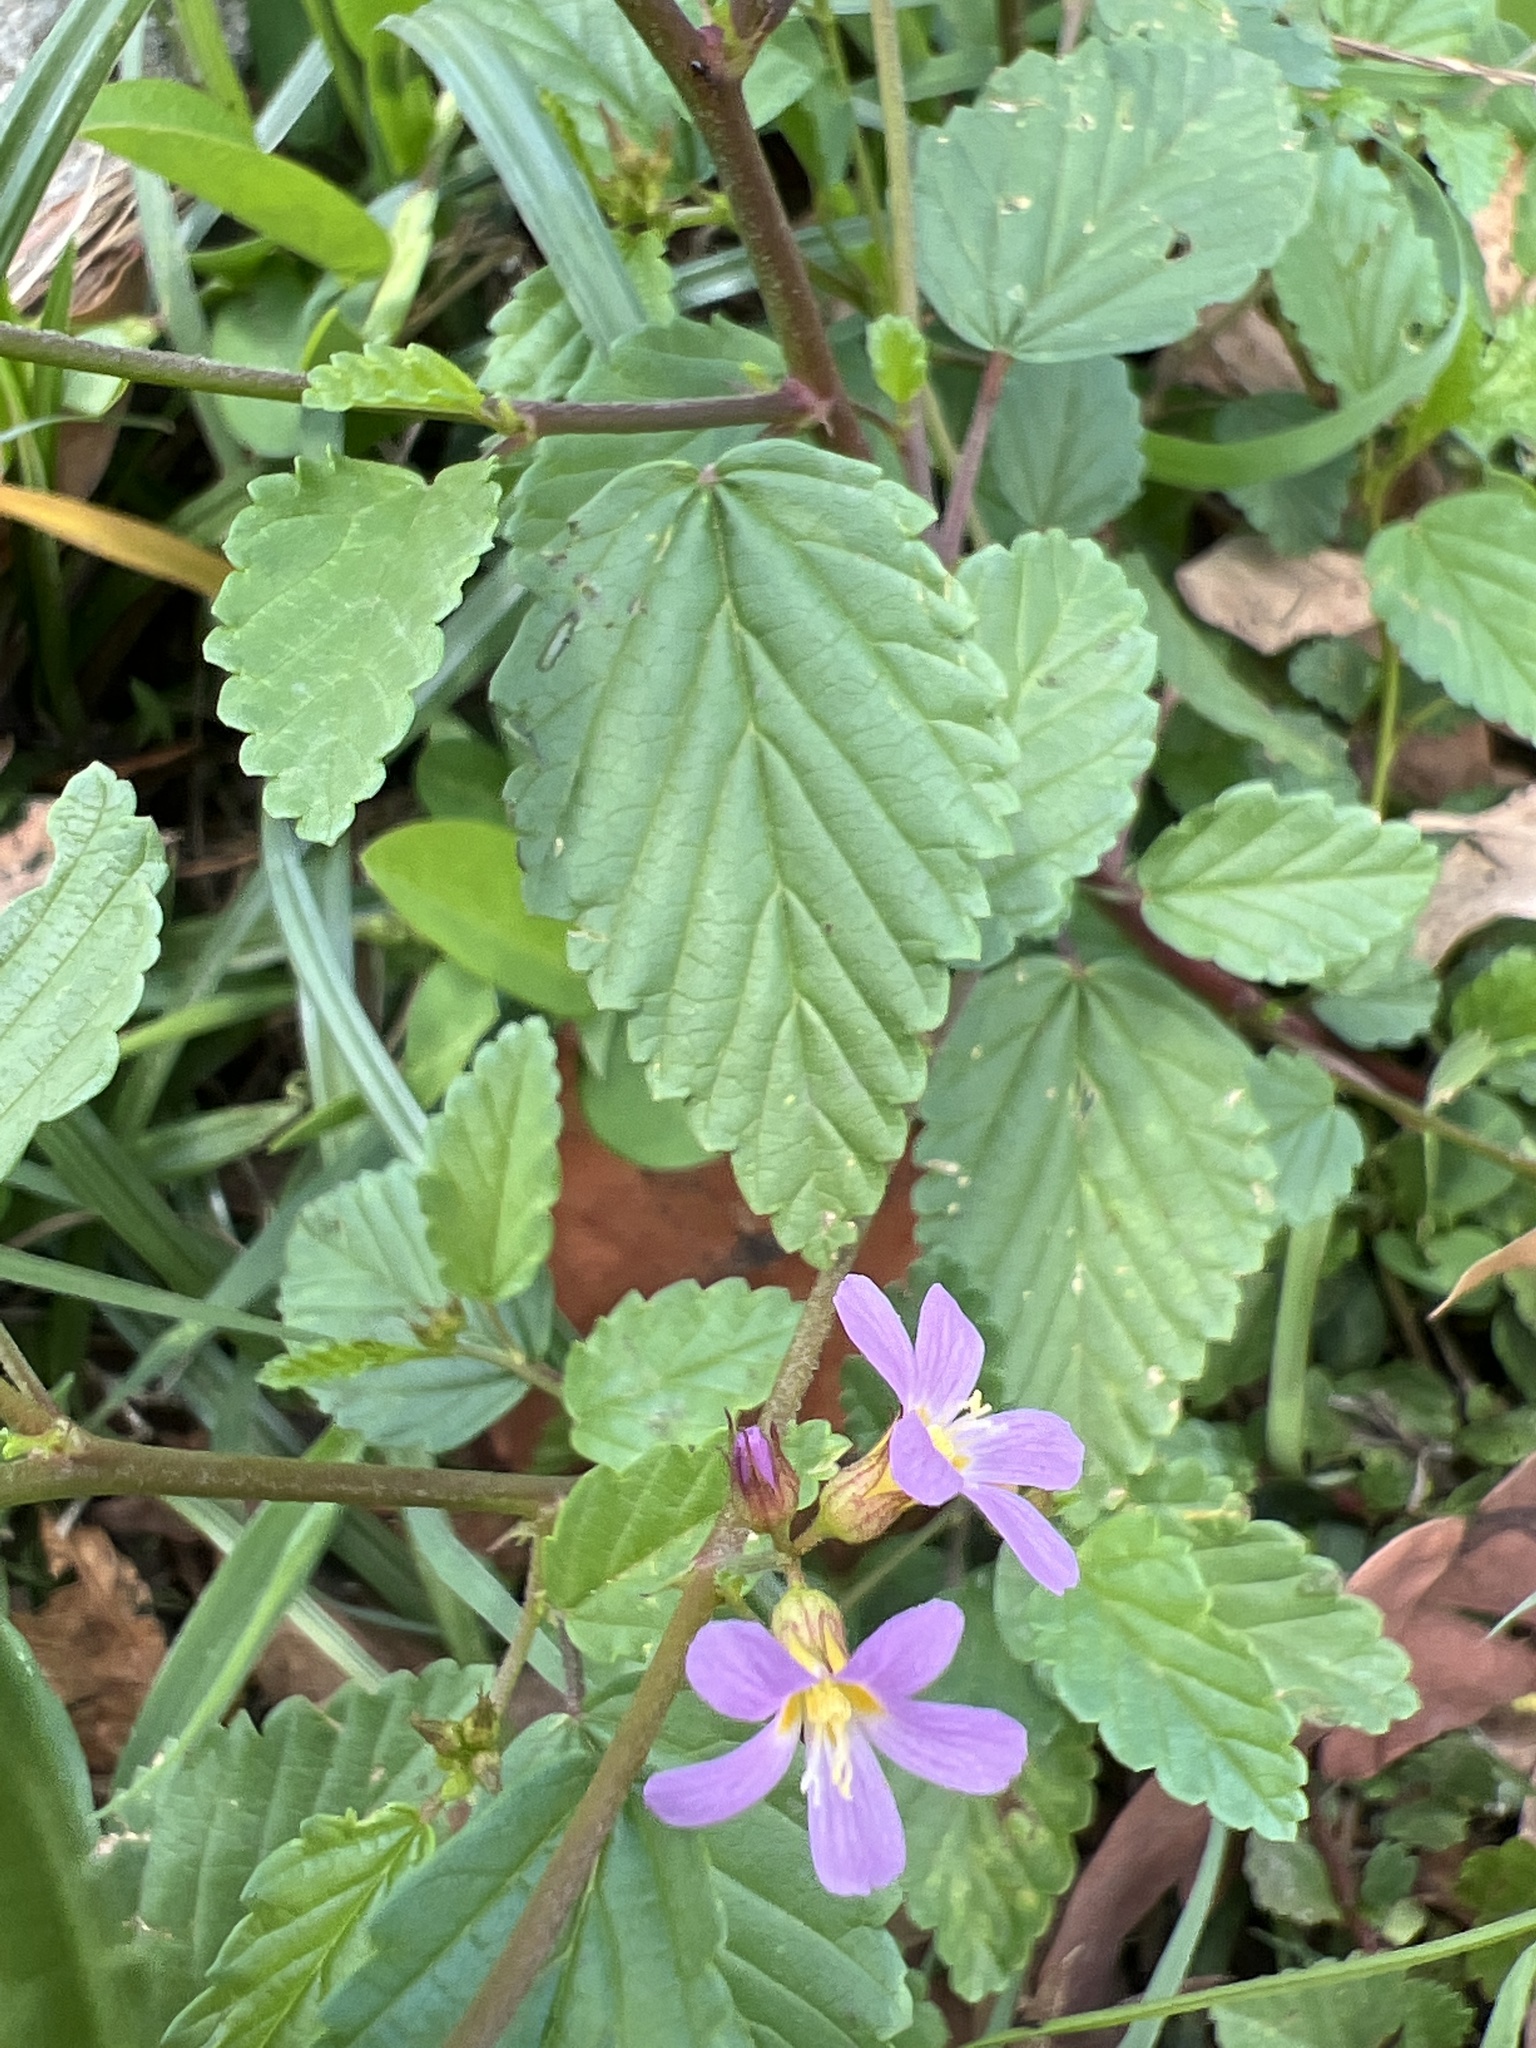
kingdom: Plantae
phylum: Tracheophyta
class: Magnoliopsida
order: Malvales
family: Malvaceae
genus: Melochia
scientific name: Melochia pyramidata
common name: Pyramidflower
